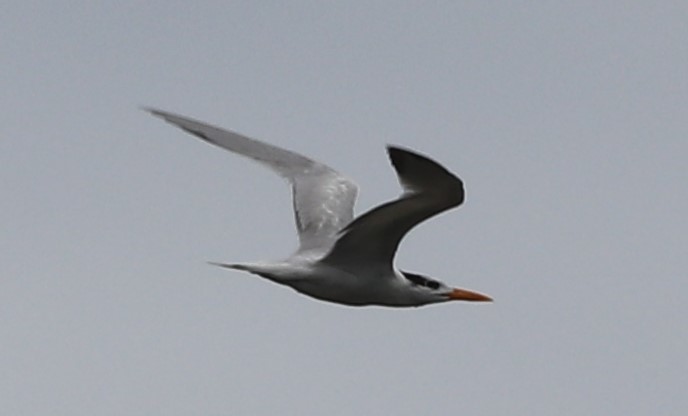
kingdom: Animalia
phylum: Chordata
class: Aves
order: Charadriiformes
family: Laridae
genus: Thalasseus
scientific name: Thalasseus maximus
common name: Royal tern
